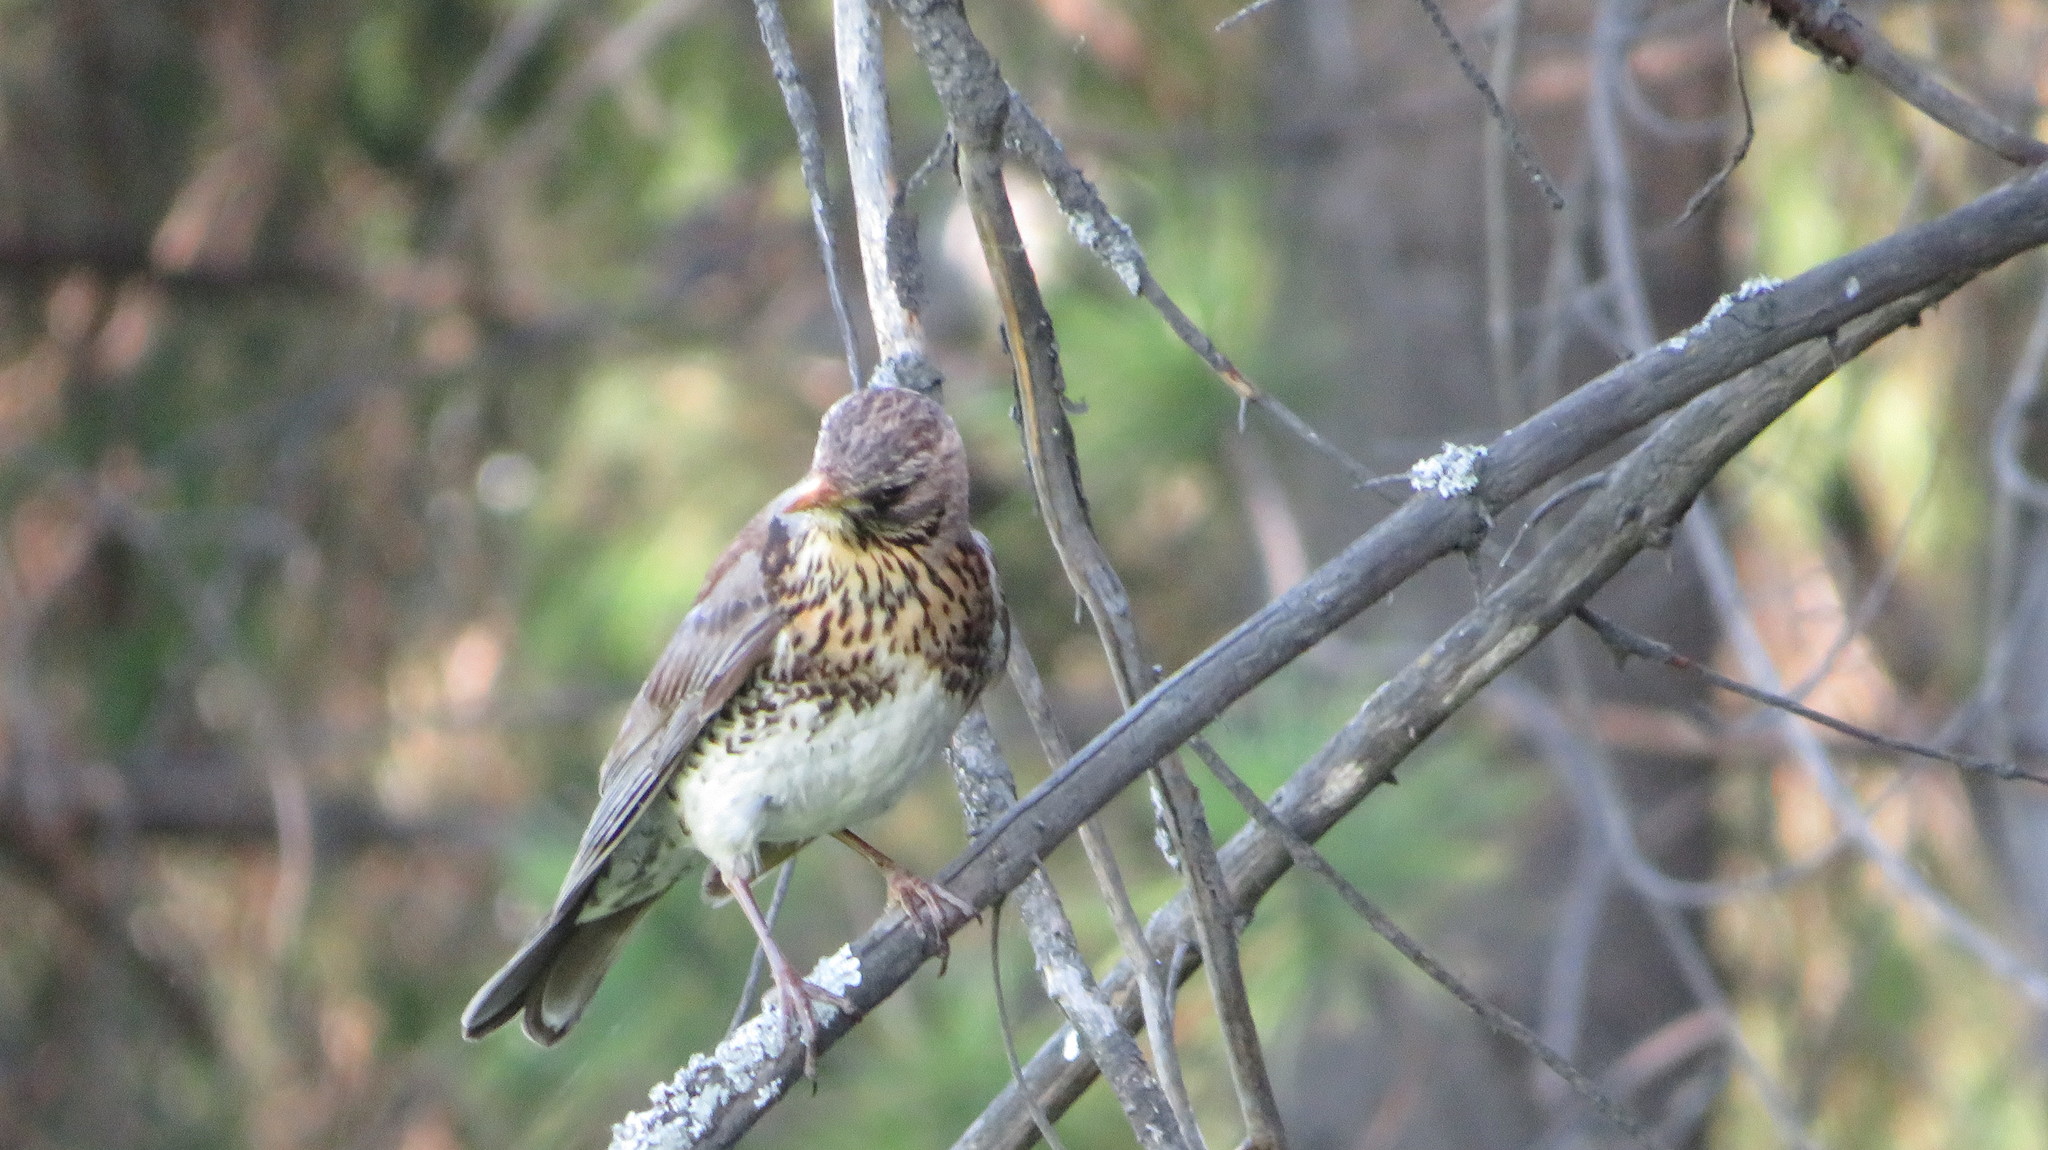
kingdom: Animalia
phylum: Chordata
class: Aves
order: Passeriformes
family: Turdidae
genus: Turdus
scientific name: Turdus pilaris
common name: Fieldfare
